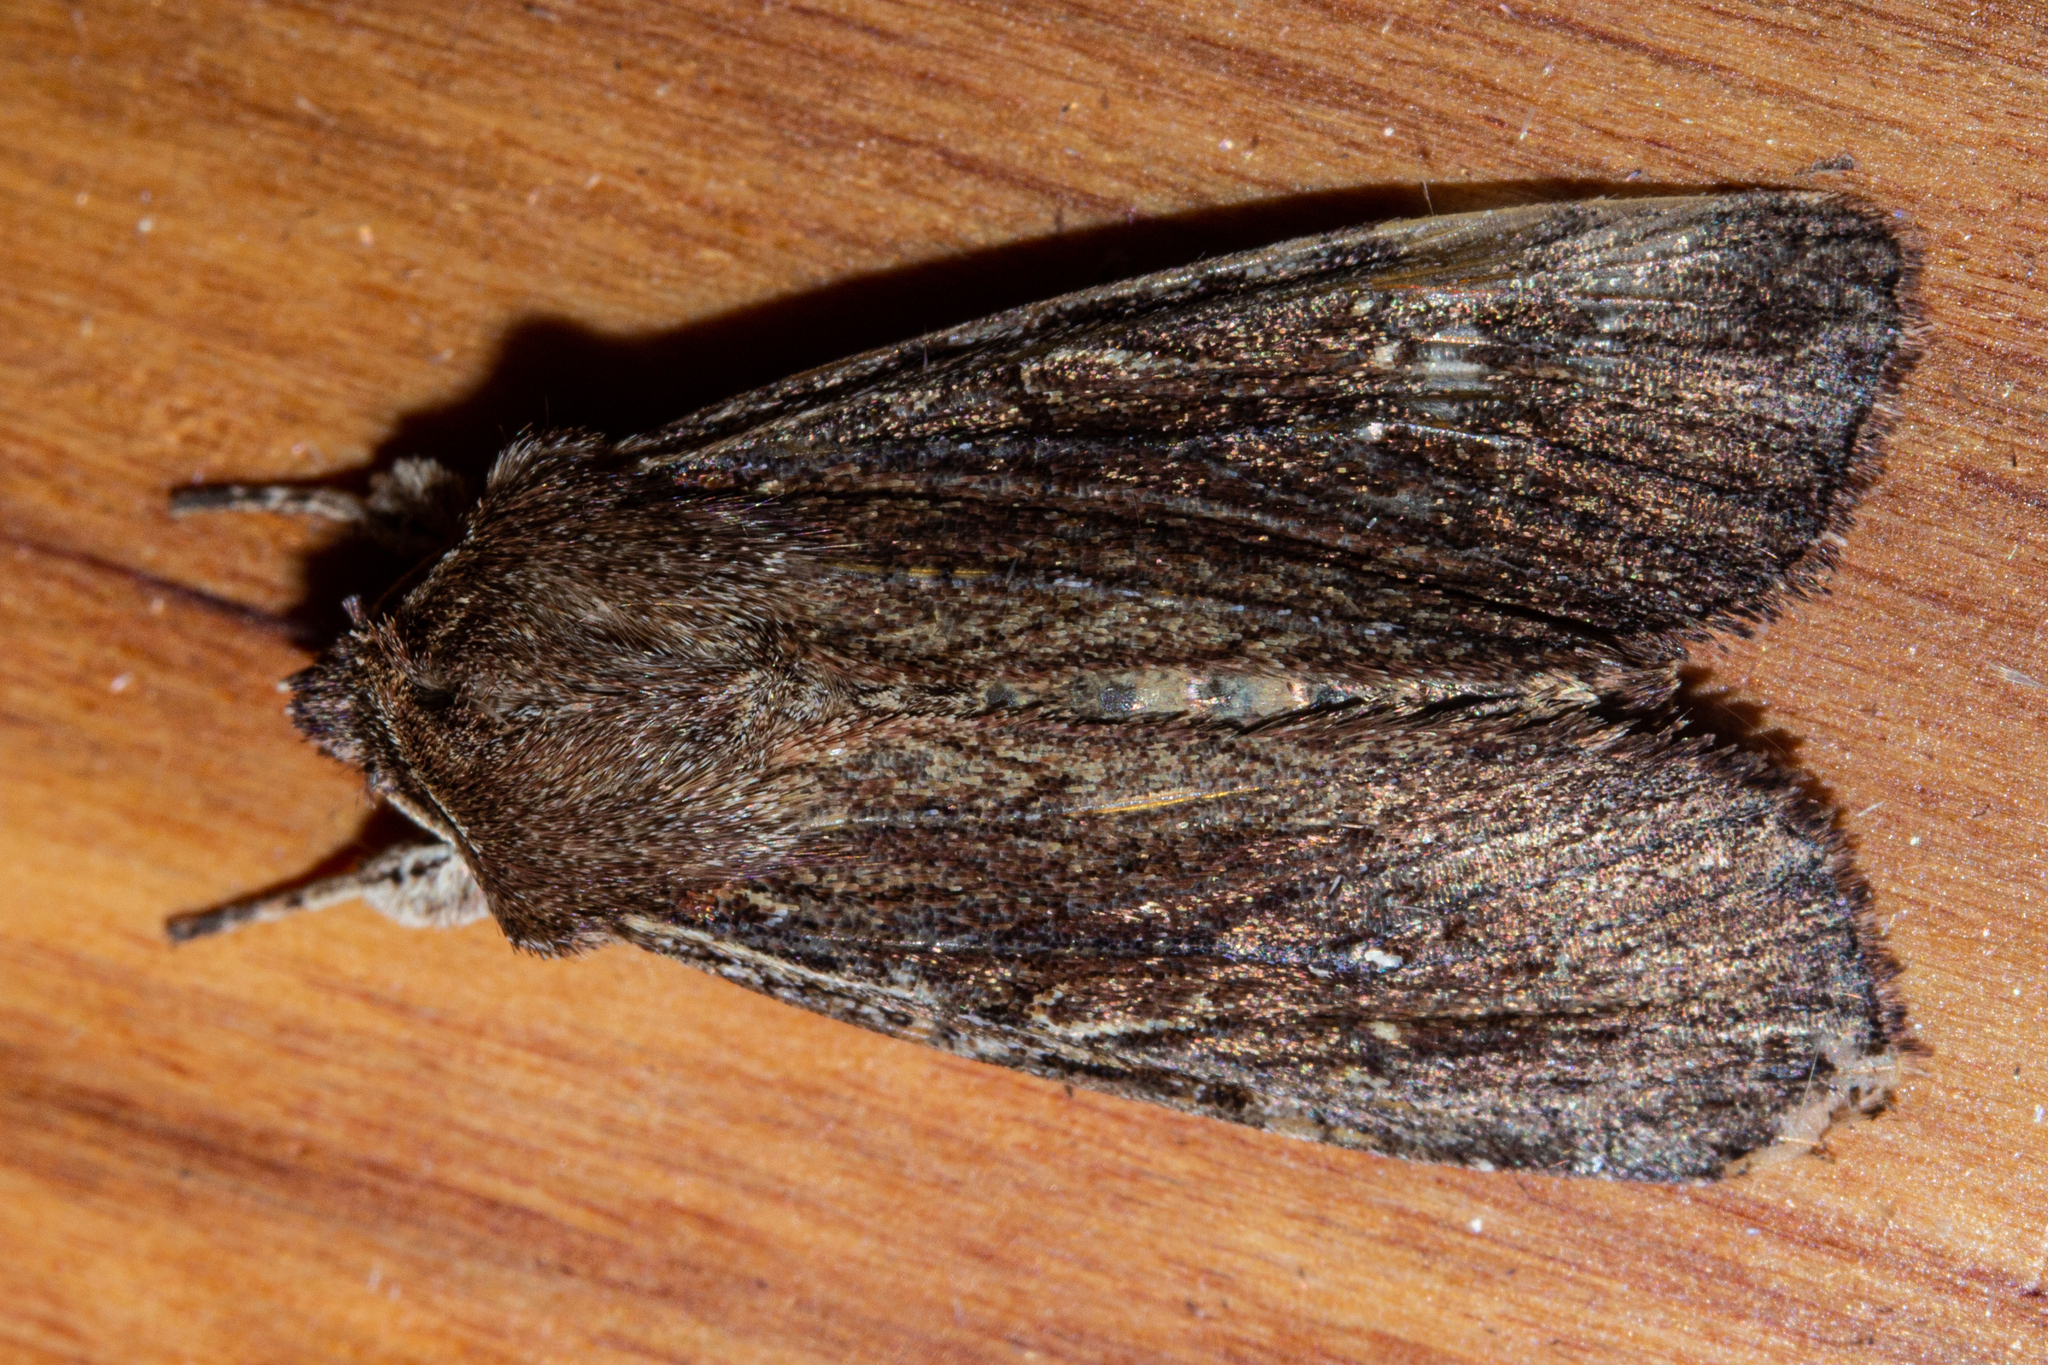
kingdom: Animalia
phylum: Arthropoda
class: Insecta
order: Lepidoptera
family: Noctuidae
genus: Ichneutica
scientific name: Ichneutica
